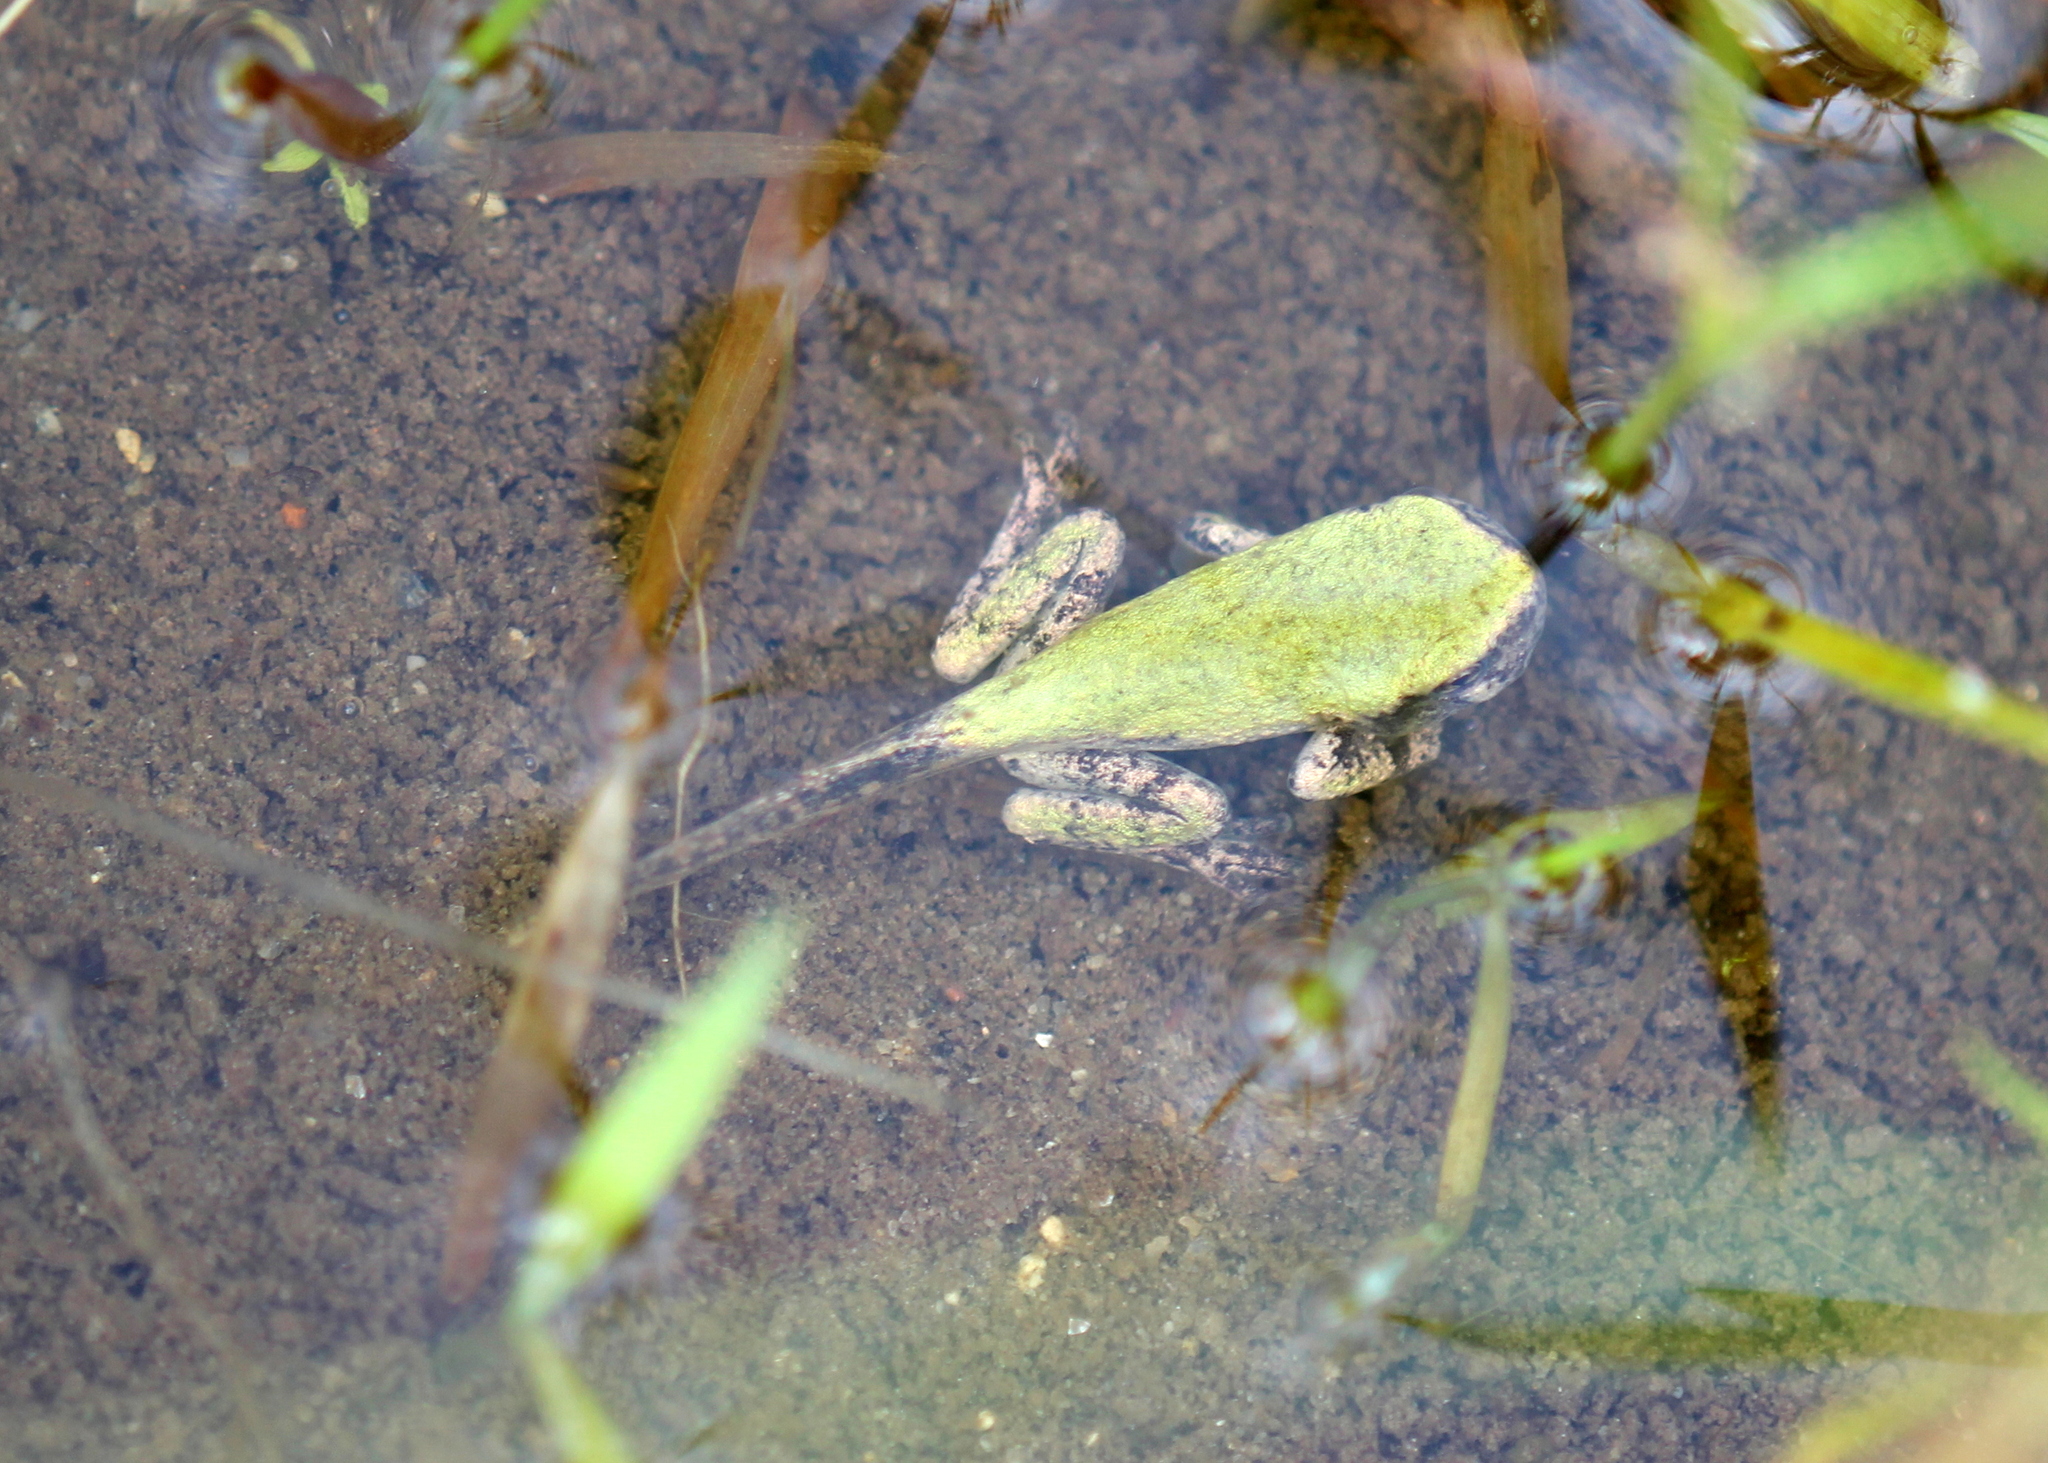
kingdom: Animalia
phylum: Chordata
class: Amphibia
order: Anura
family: Hylidae
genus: Dryophytes
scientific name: Dryophytes versicolor
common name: Gray treefrog
